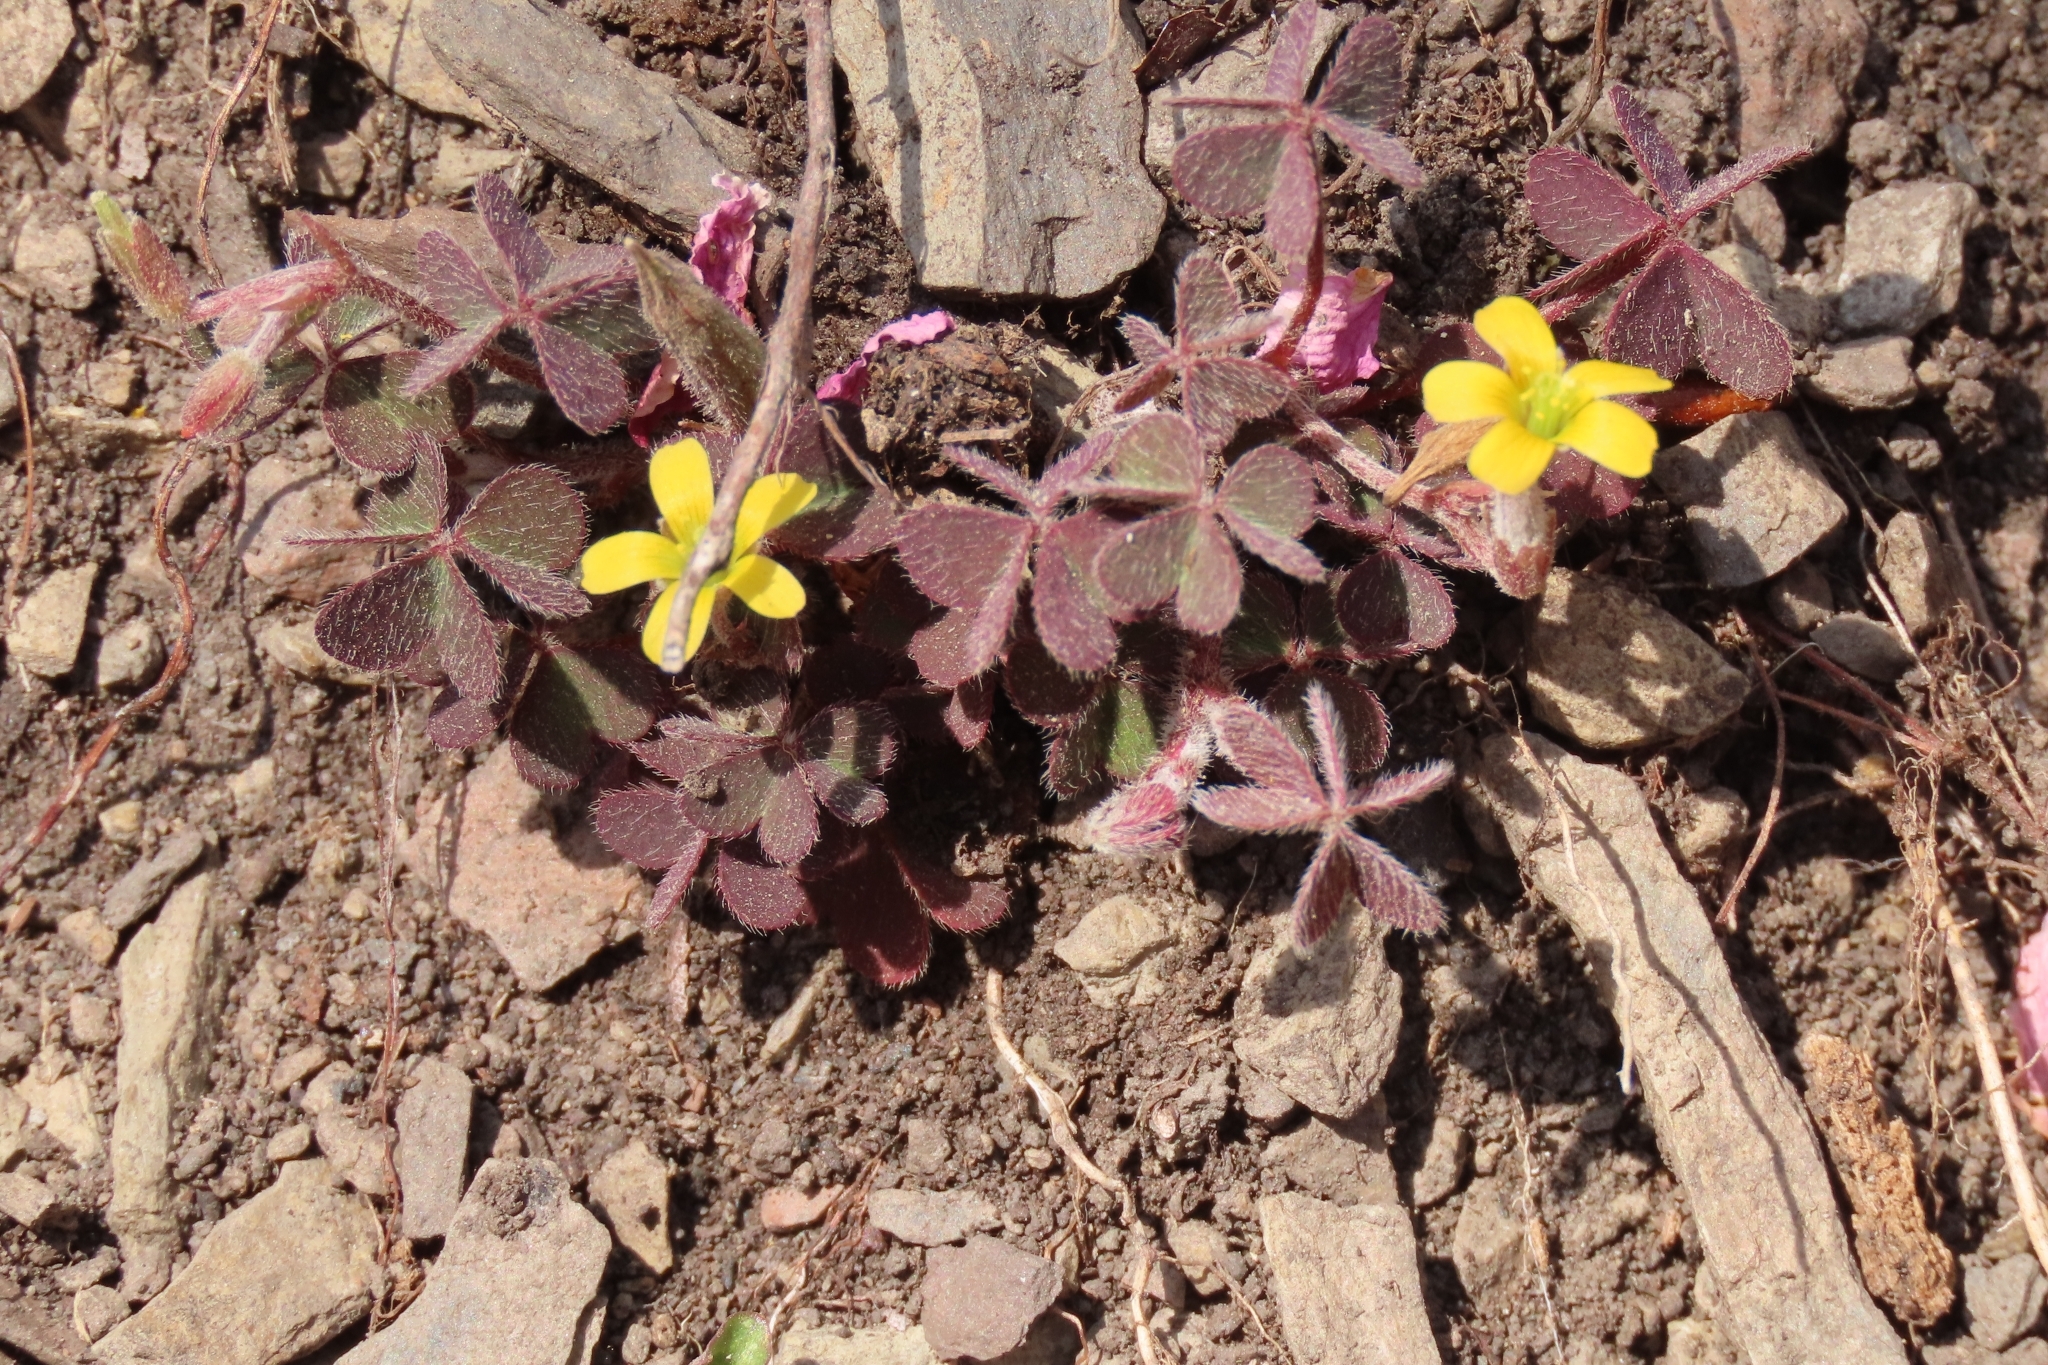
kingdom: Plantae
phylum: Tracheophyta
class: Magnoliopsida
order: Oxalidales
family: Oxalidaceae
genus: Oxalis
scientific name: Oxalis corniculata
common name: Procumbent yellow-sorrel
